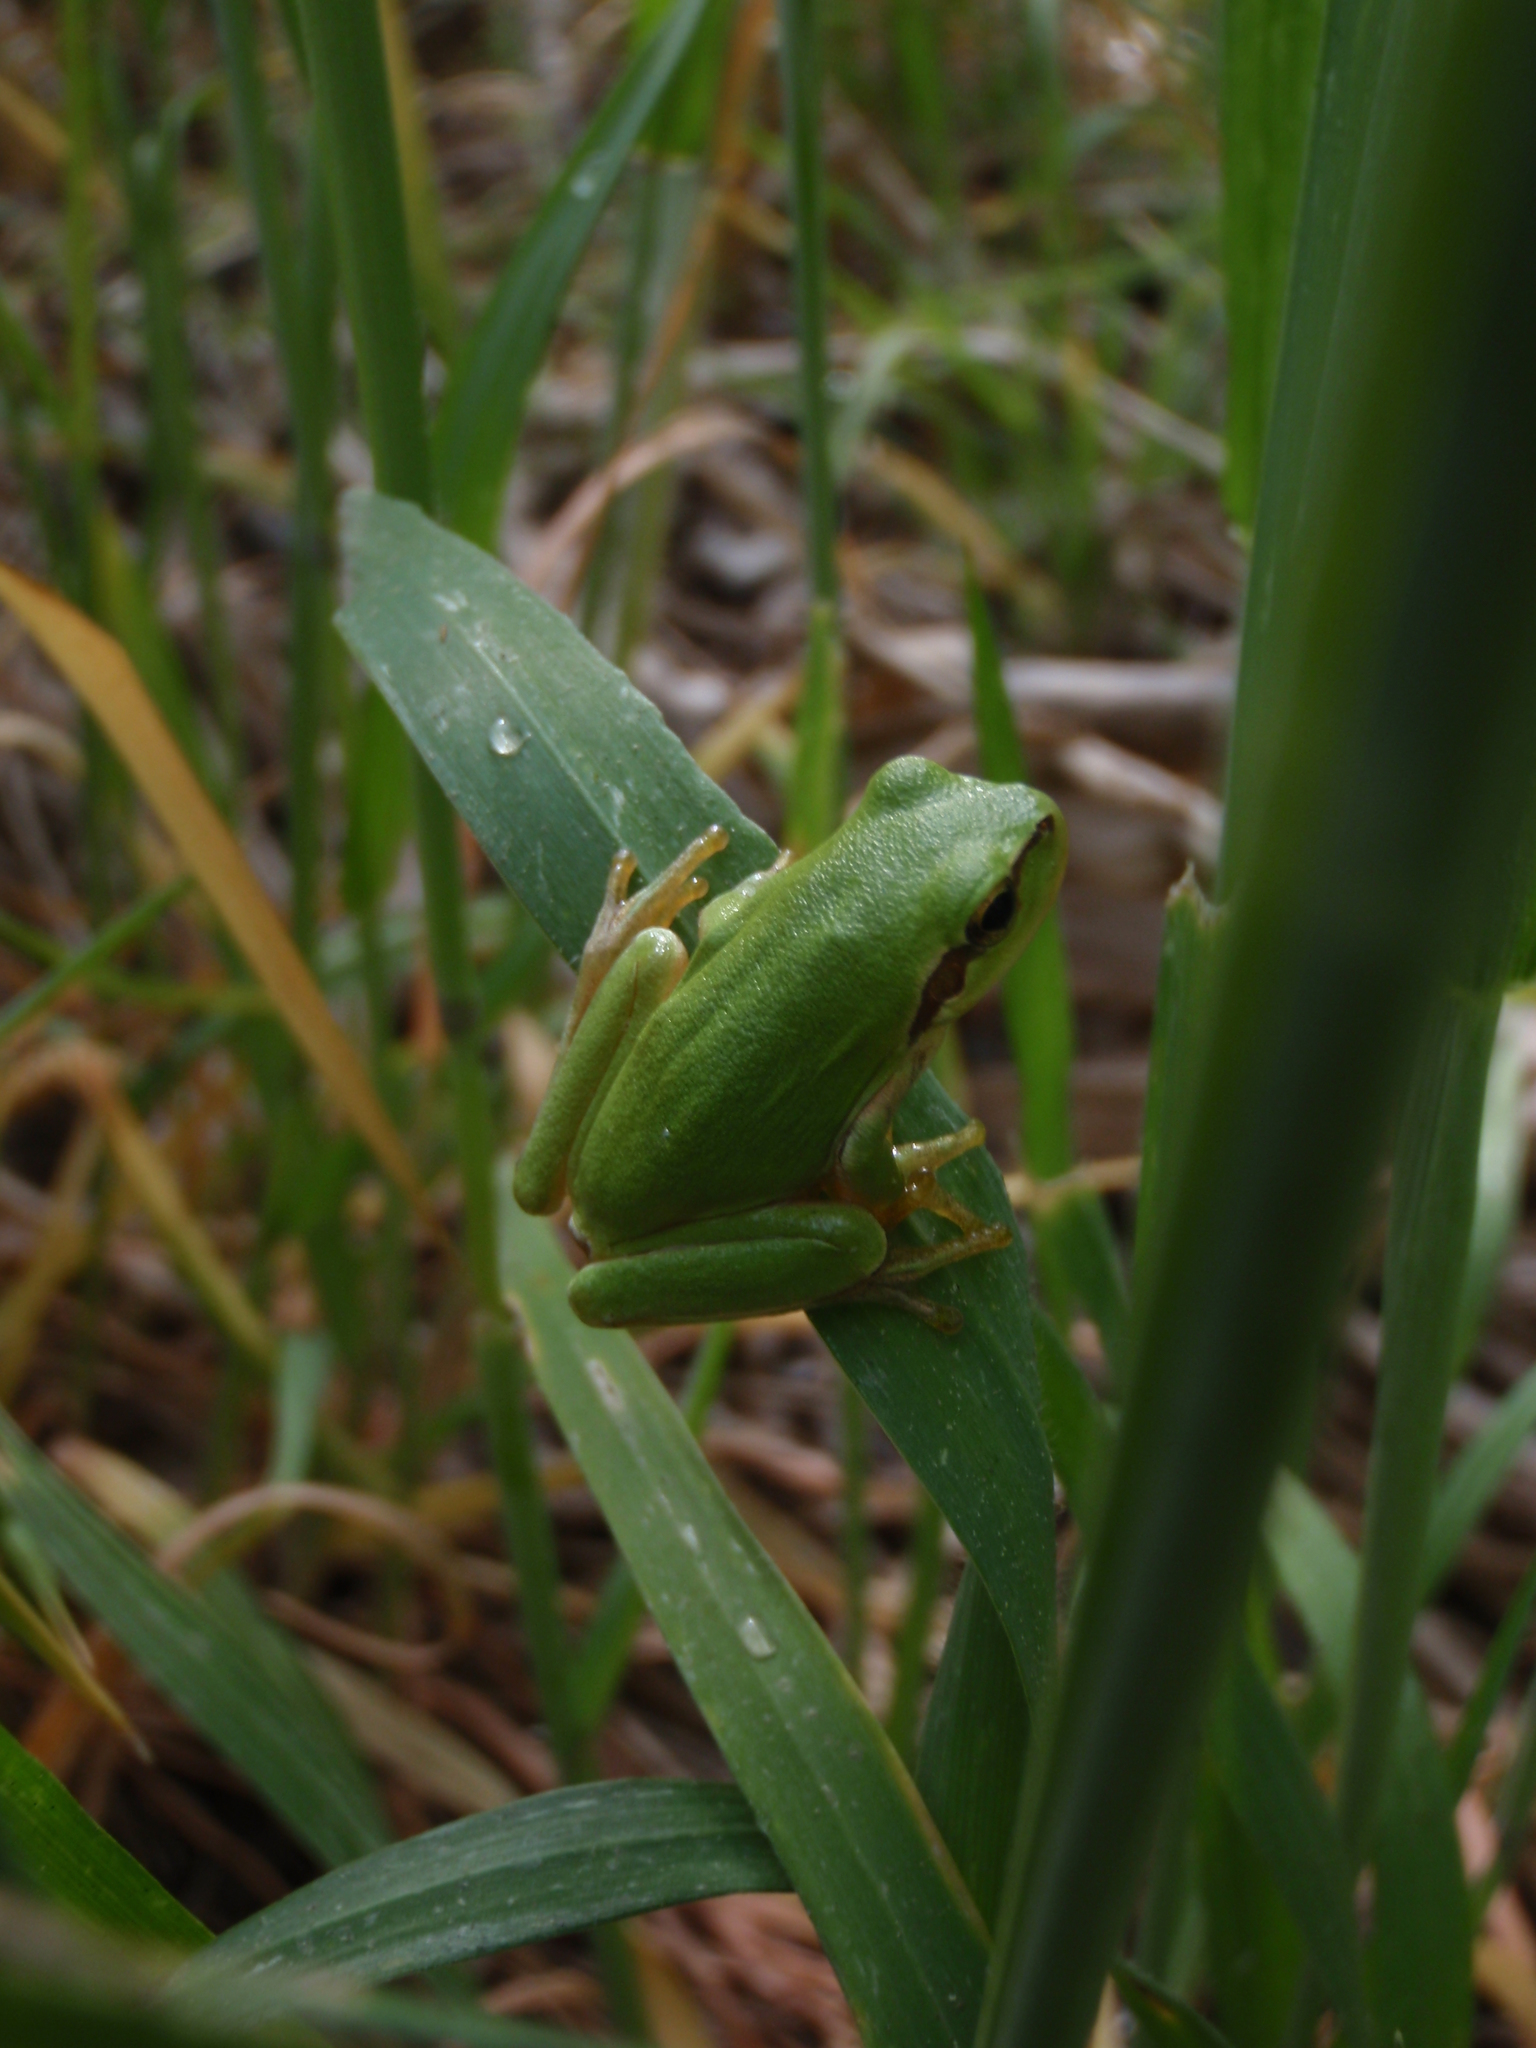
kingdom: Animalia
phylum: Chordata
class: Amphibia
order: Anura
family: Hylidae
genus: Hyla
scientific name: Hyla meridionalis
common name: Stripeless tree frog
